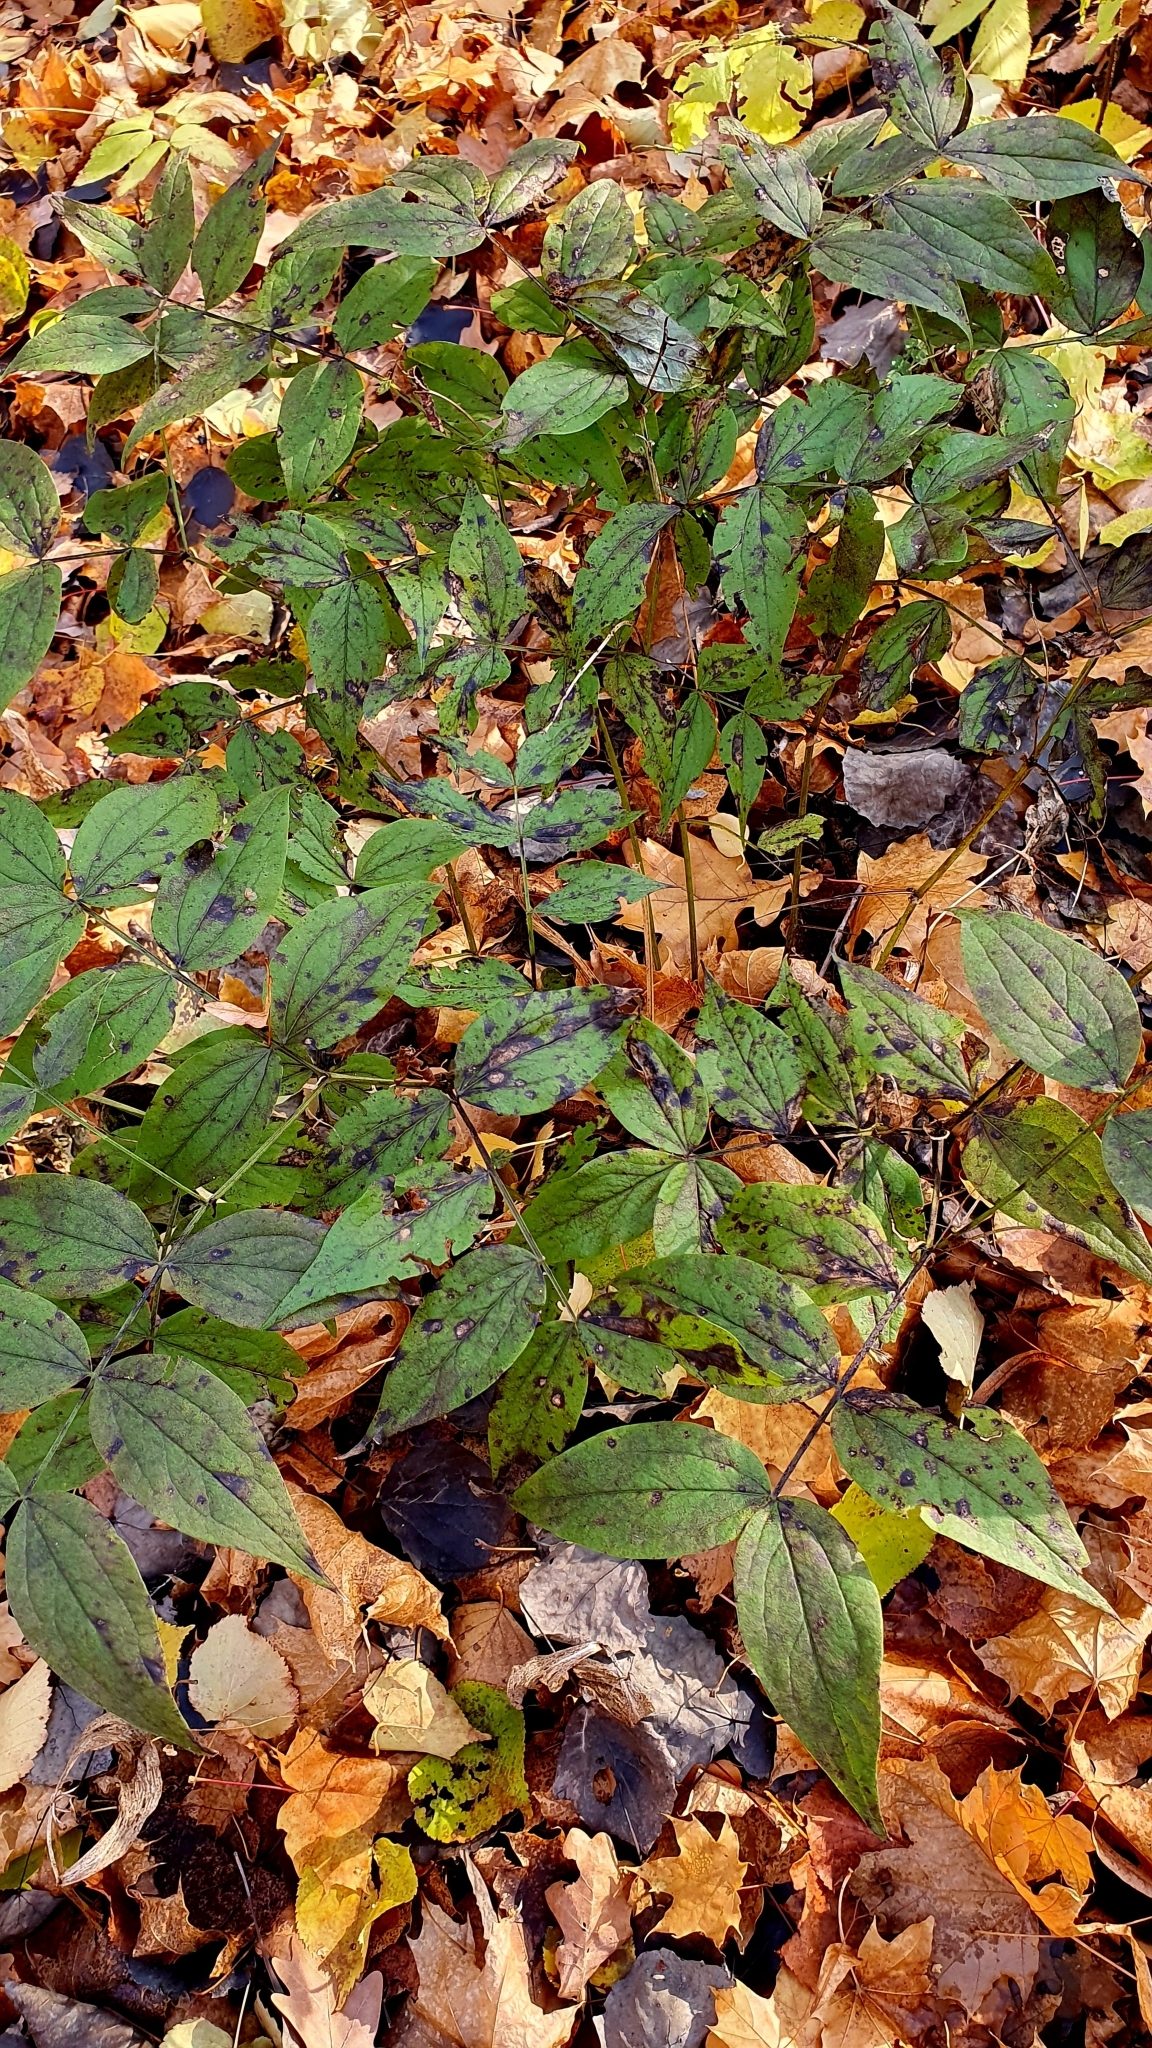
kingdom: Plantae
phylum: Tracheophyta
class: Magnoliopsida
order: Fabales
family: Fabaceae
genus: Lathyrus
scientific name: Lathyrus vernus
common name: Spring pea
